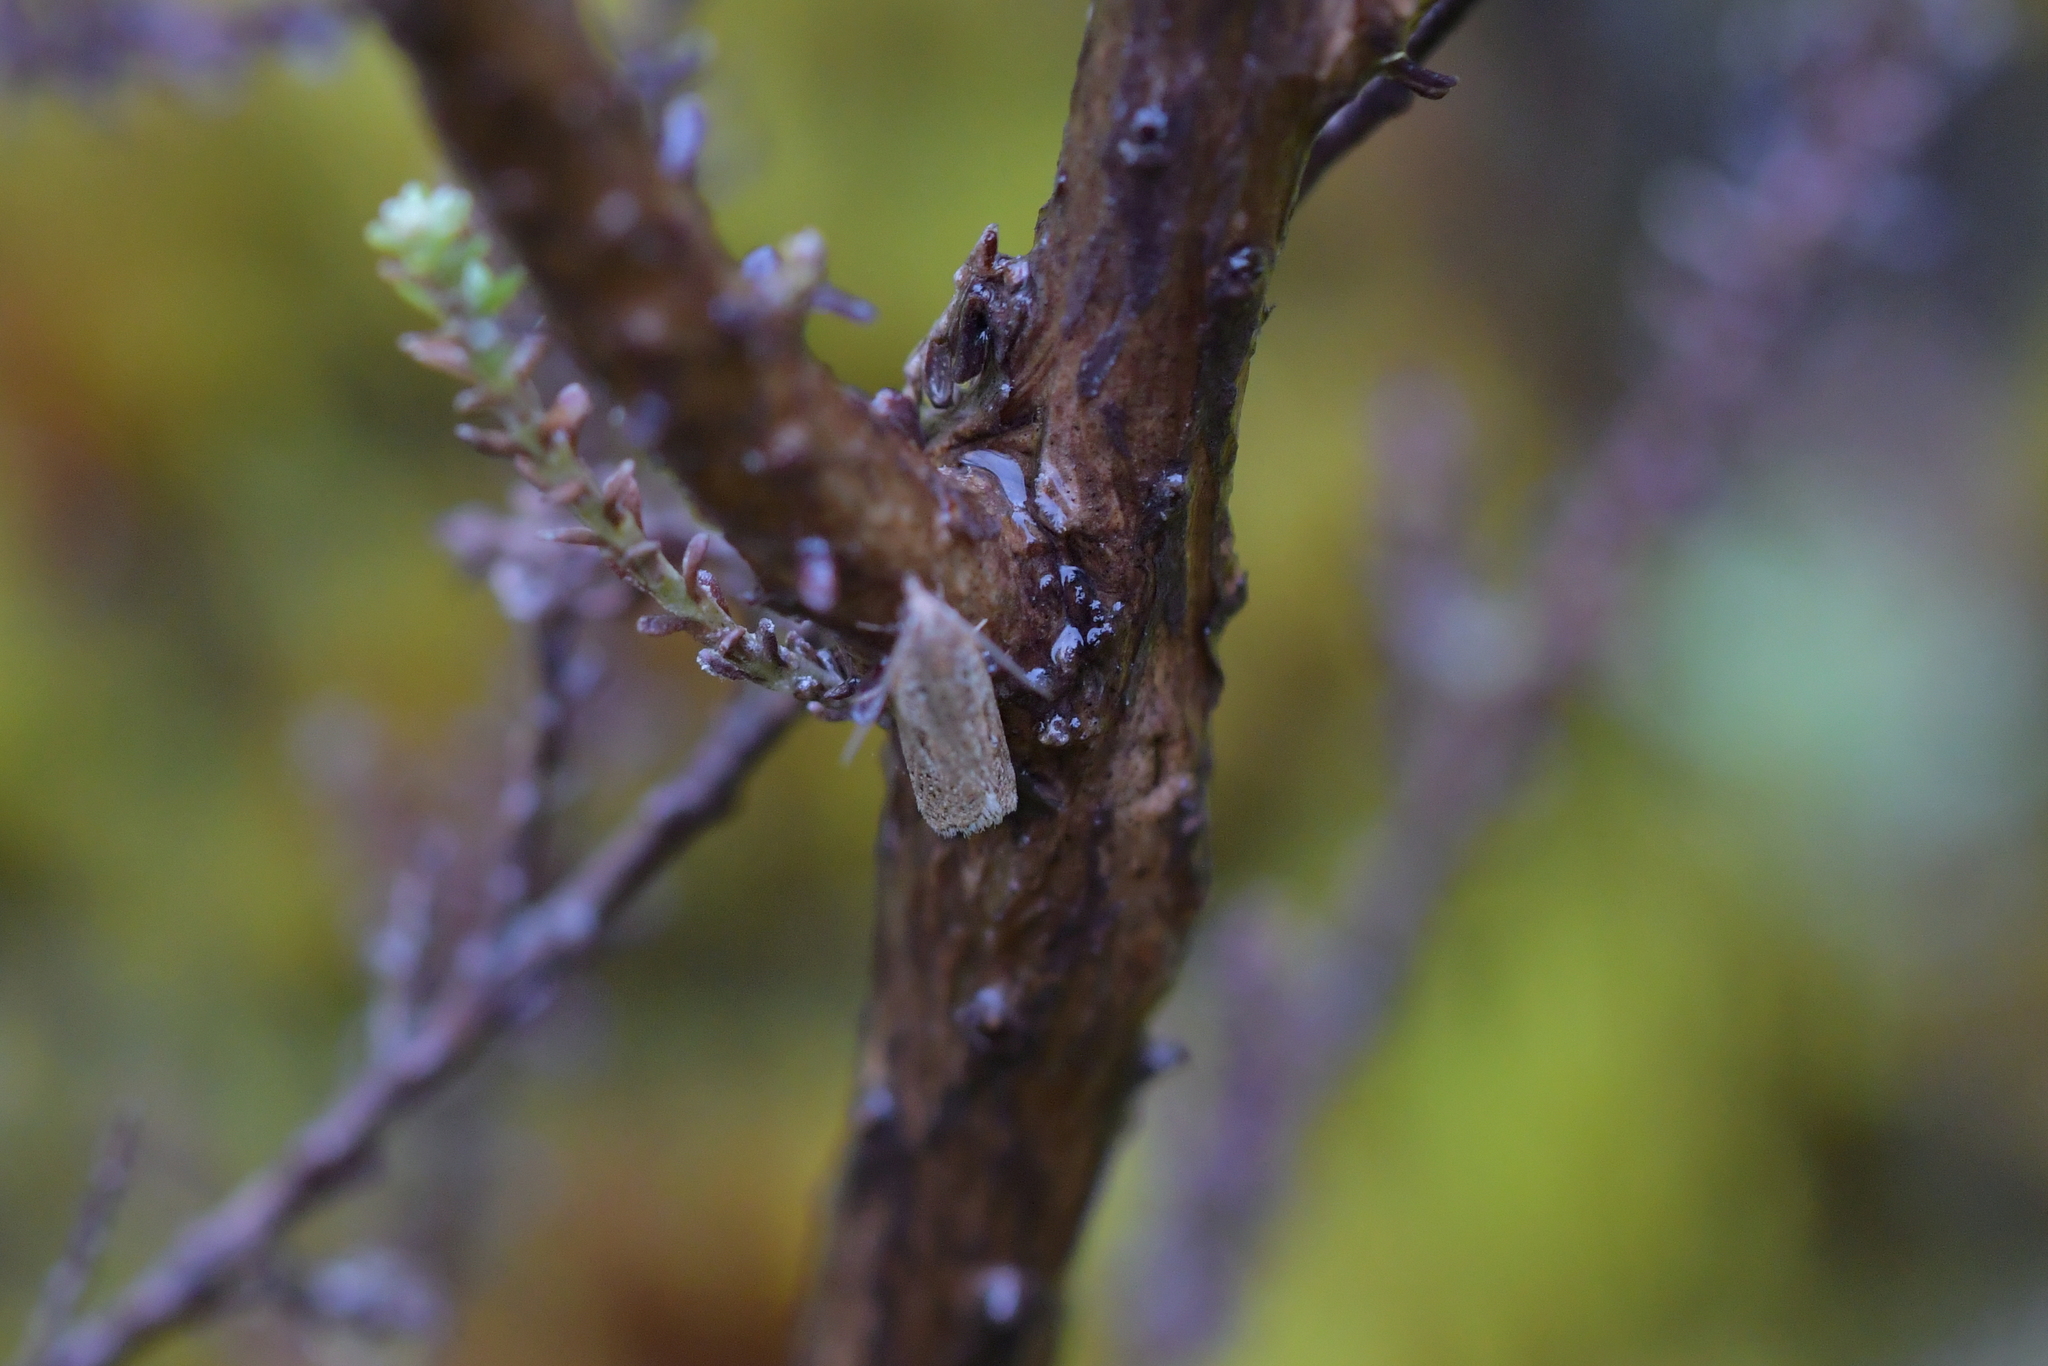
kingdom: Animalia
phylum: Arthropoda
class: Insecta
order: Lepidoptera
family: Tortricidae
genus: Capua
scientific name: Capua semiferana
